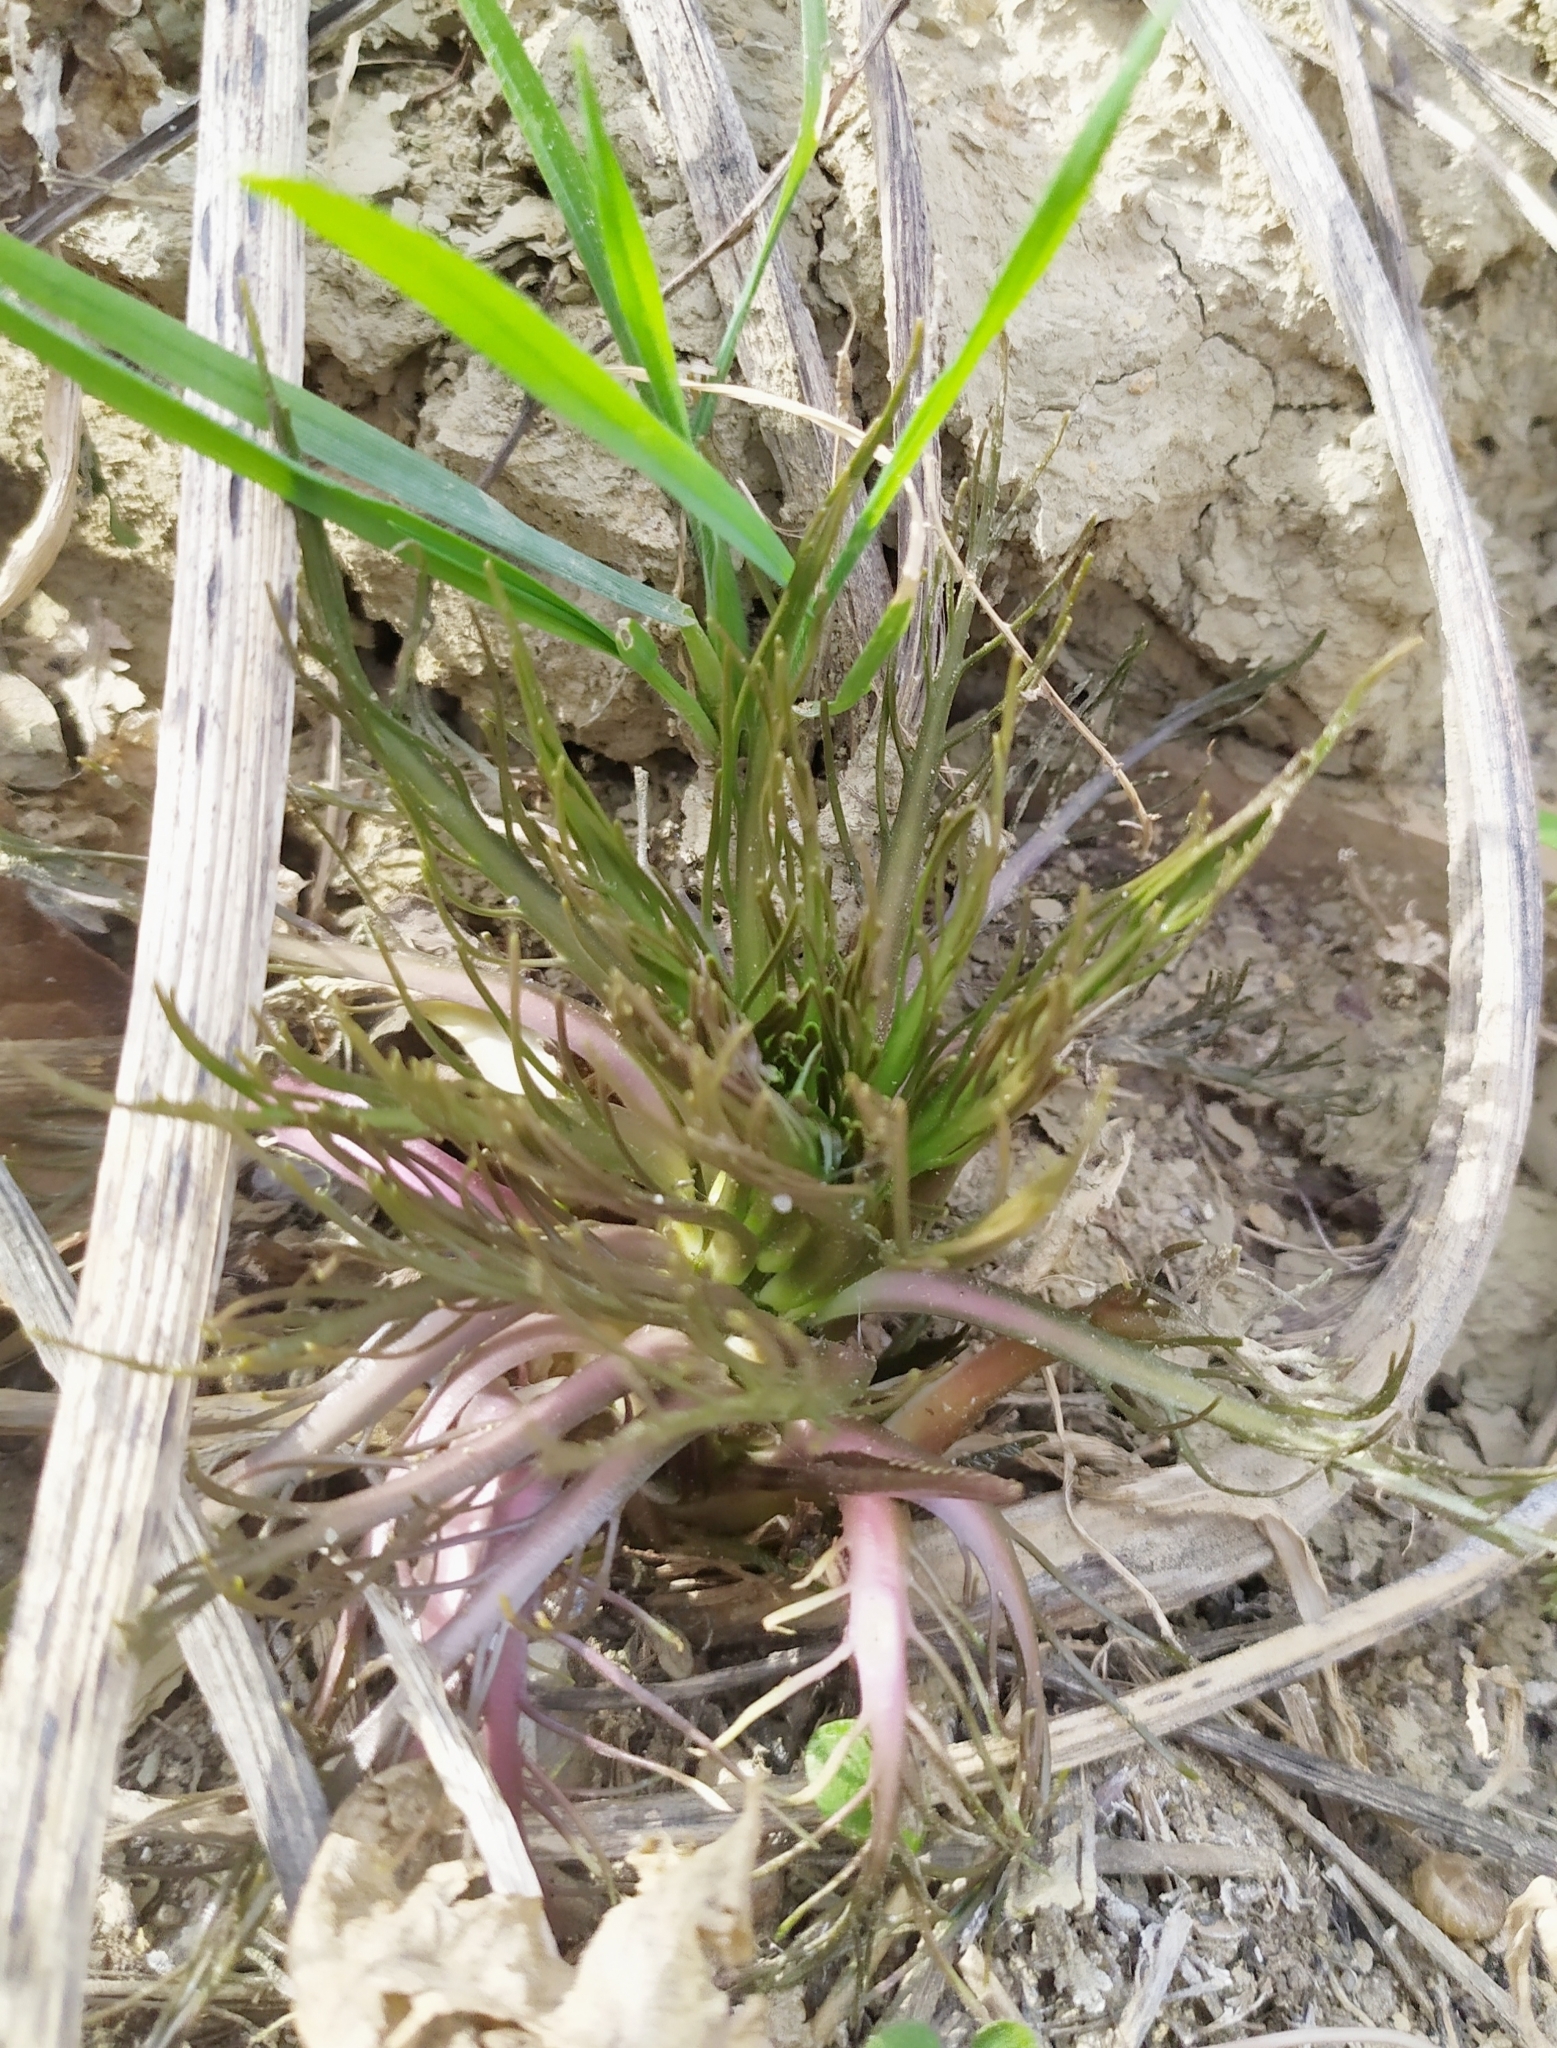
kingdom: Plantae
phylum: Tracheophyta
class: Magnoliopsida
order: Brassicales
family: Brassicaceae
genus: Armoracia
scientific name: Armoracia rusticana
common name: Horseradish
